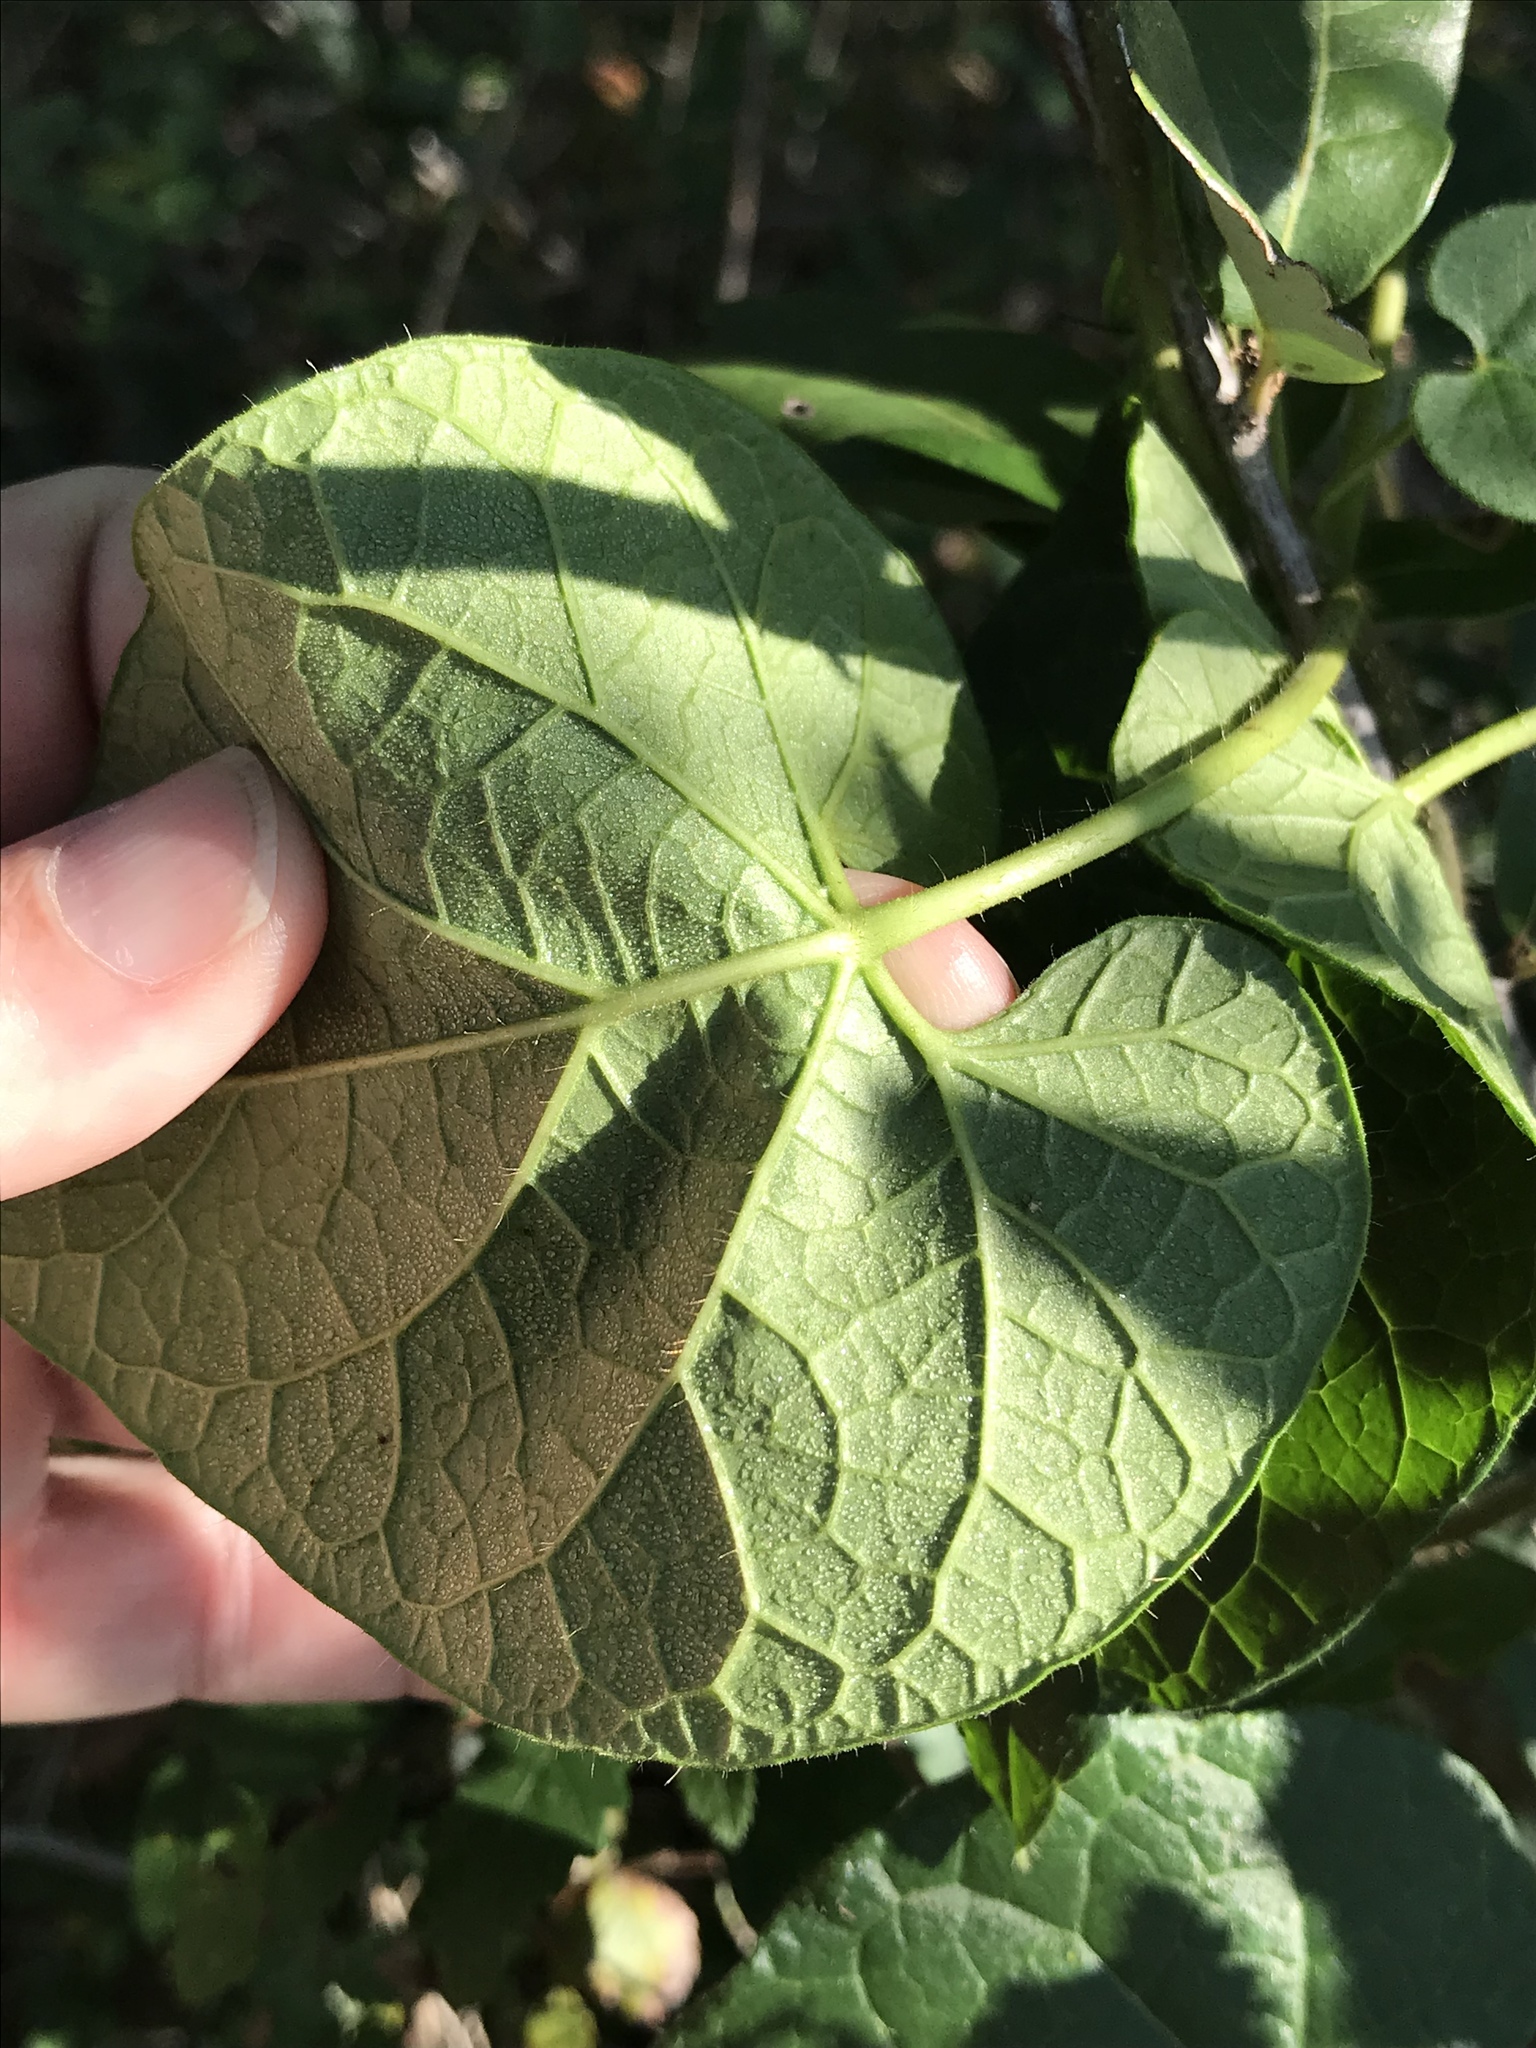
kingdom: Plantae
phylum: Tracheophyta
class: Magnoliopsida
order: Gentianales
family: Apocynaceae
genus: Gonolobus
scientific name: Gonolobus suberosus
